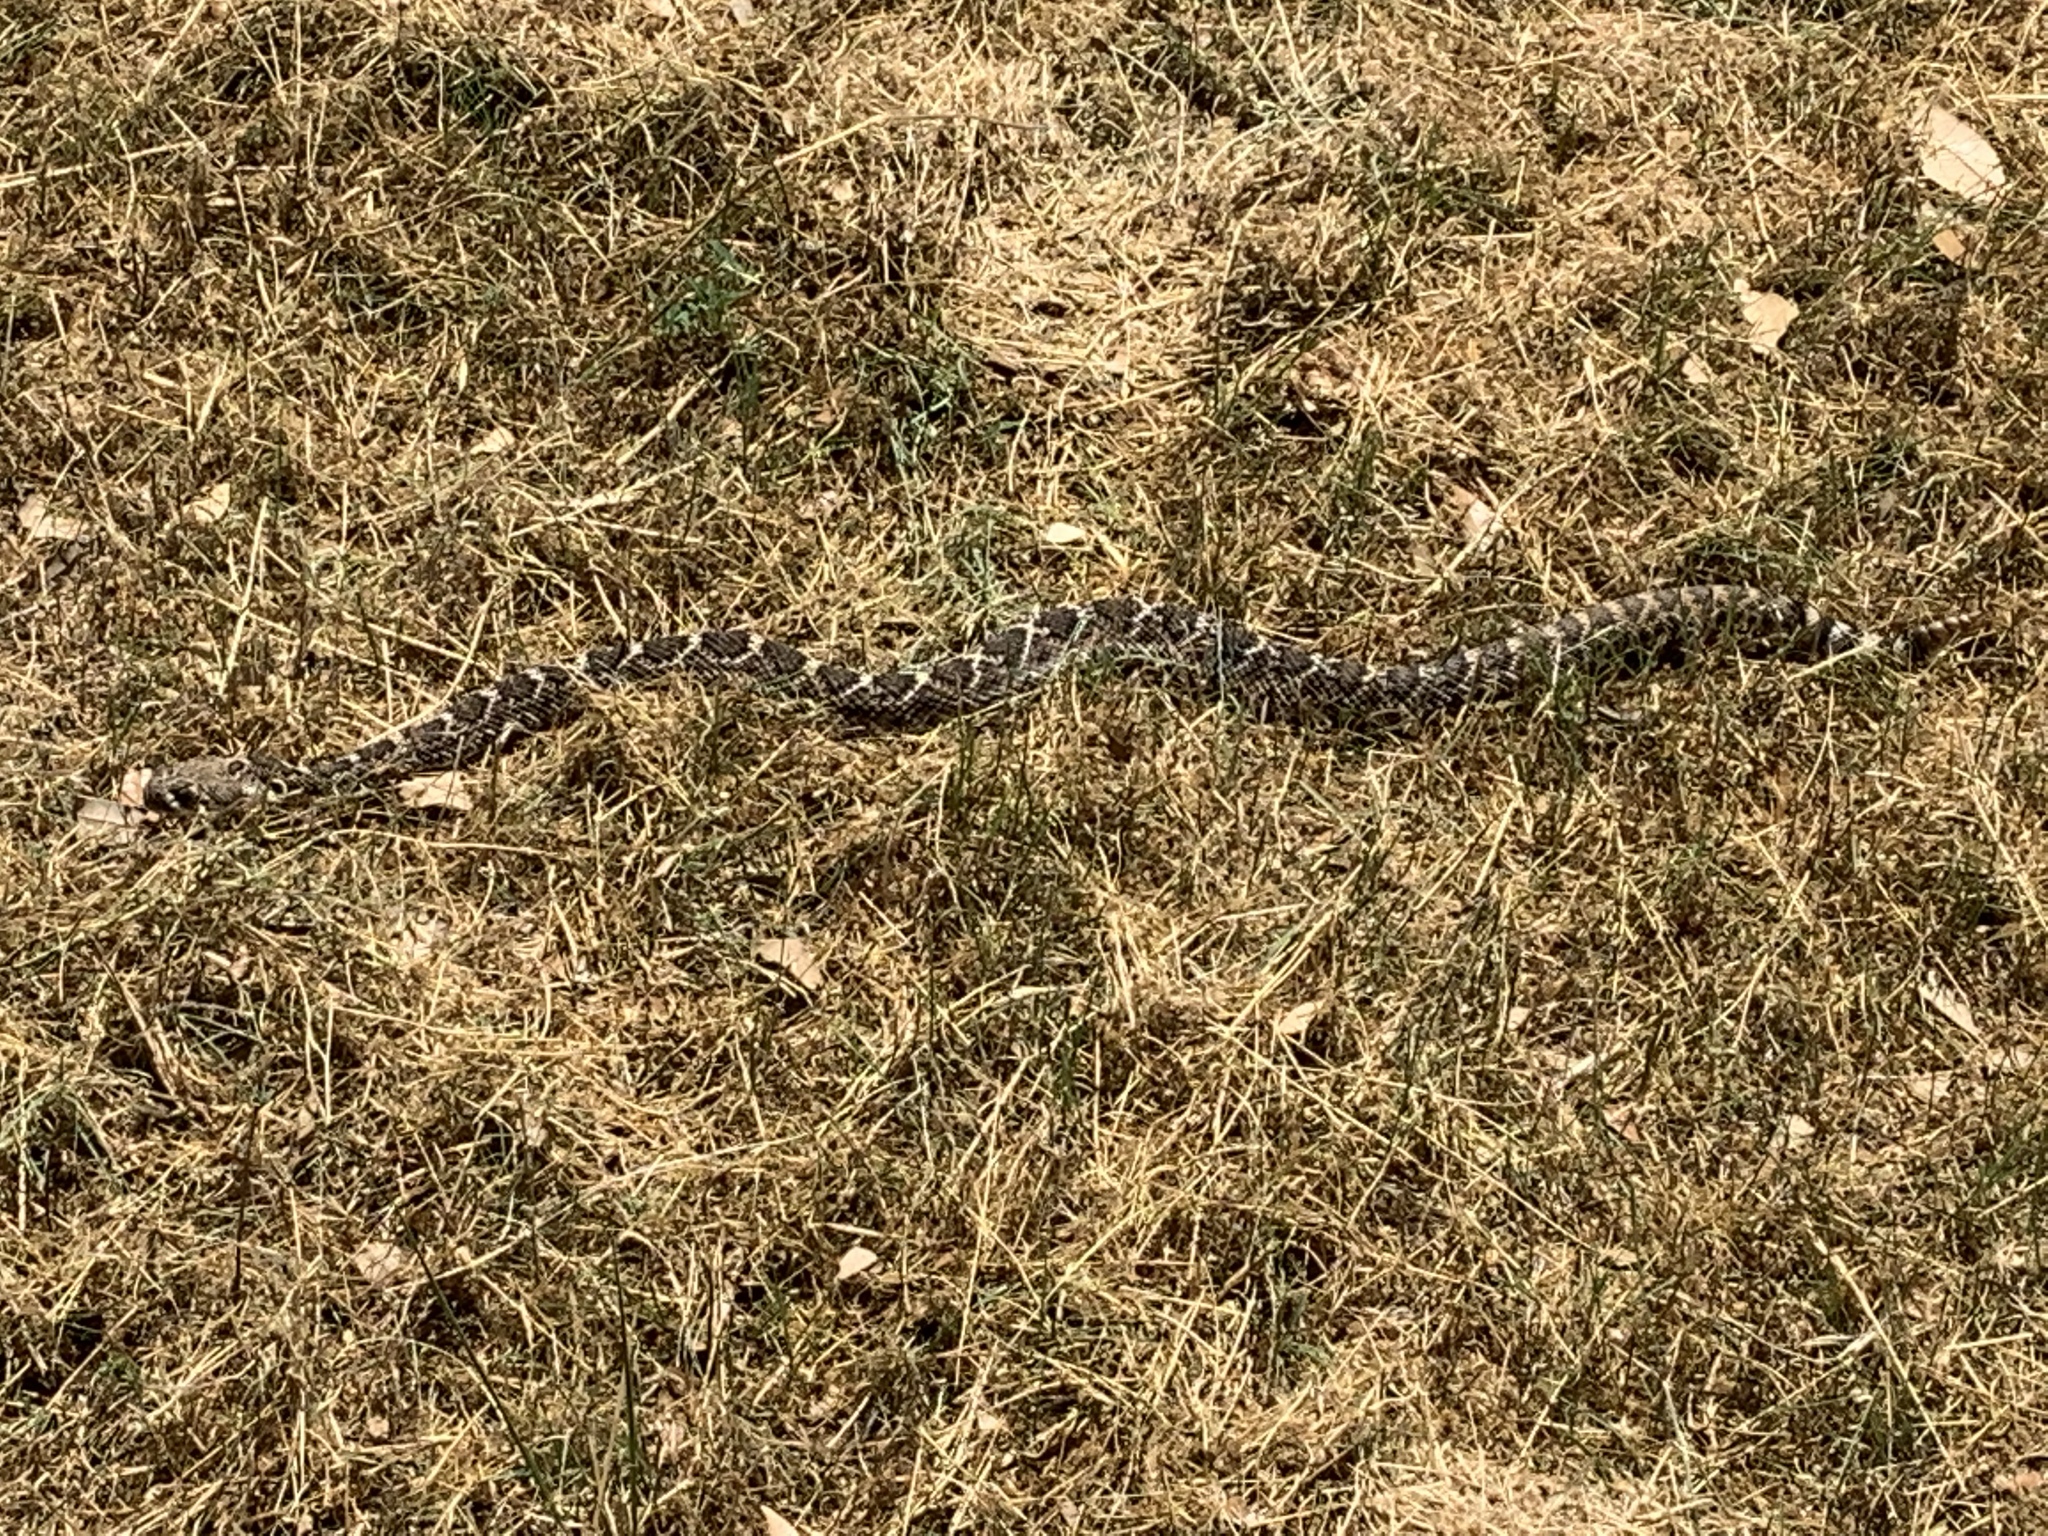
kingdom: Animalia
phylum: Chordata
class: Squamata
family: Viperidae
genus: Crotalus
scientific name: Crotalus atrox
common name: Western diamond-backed rattlesnake
